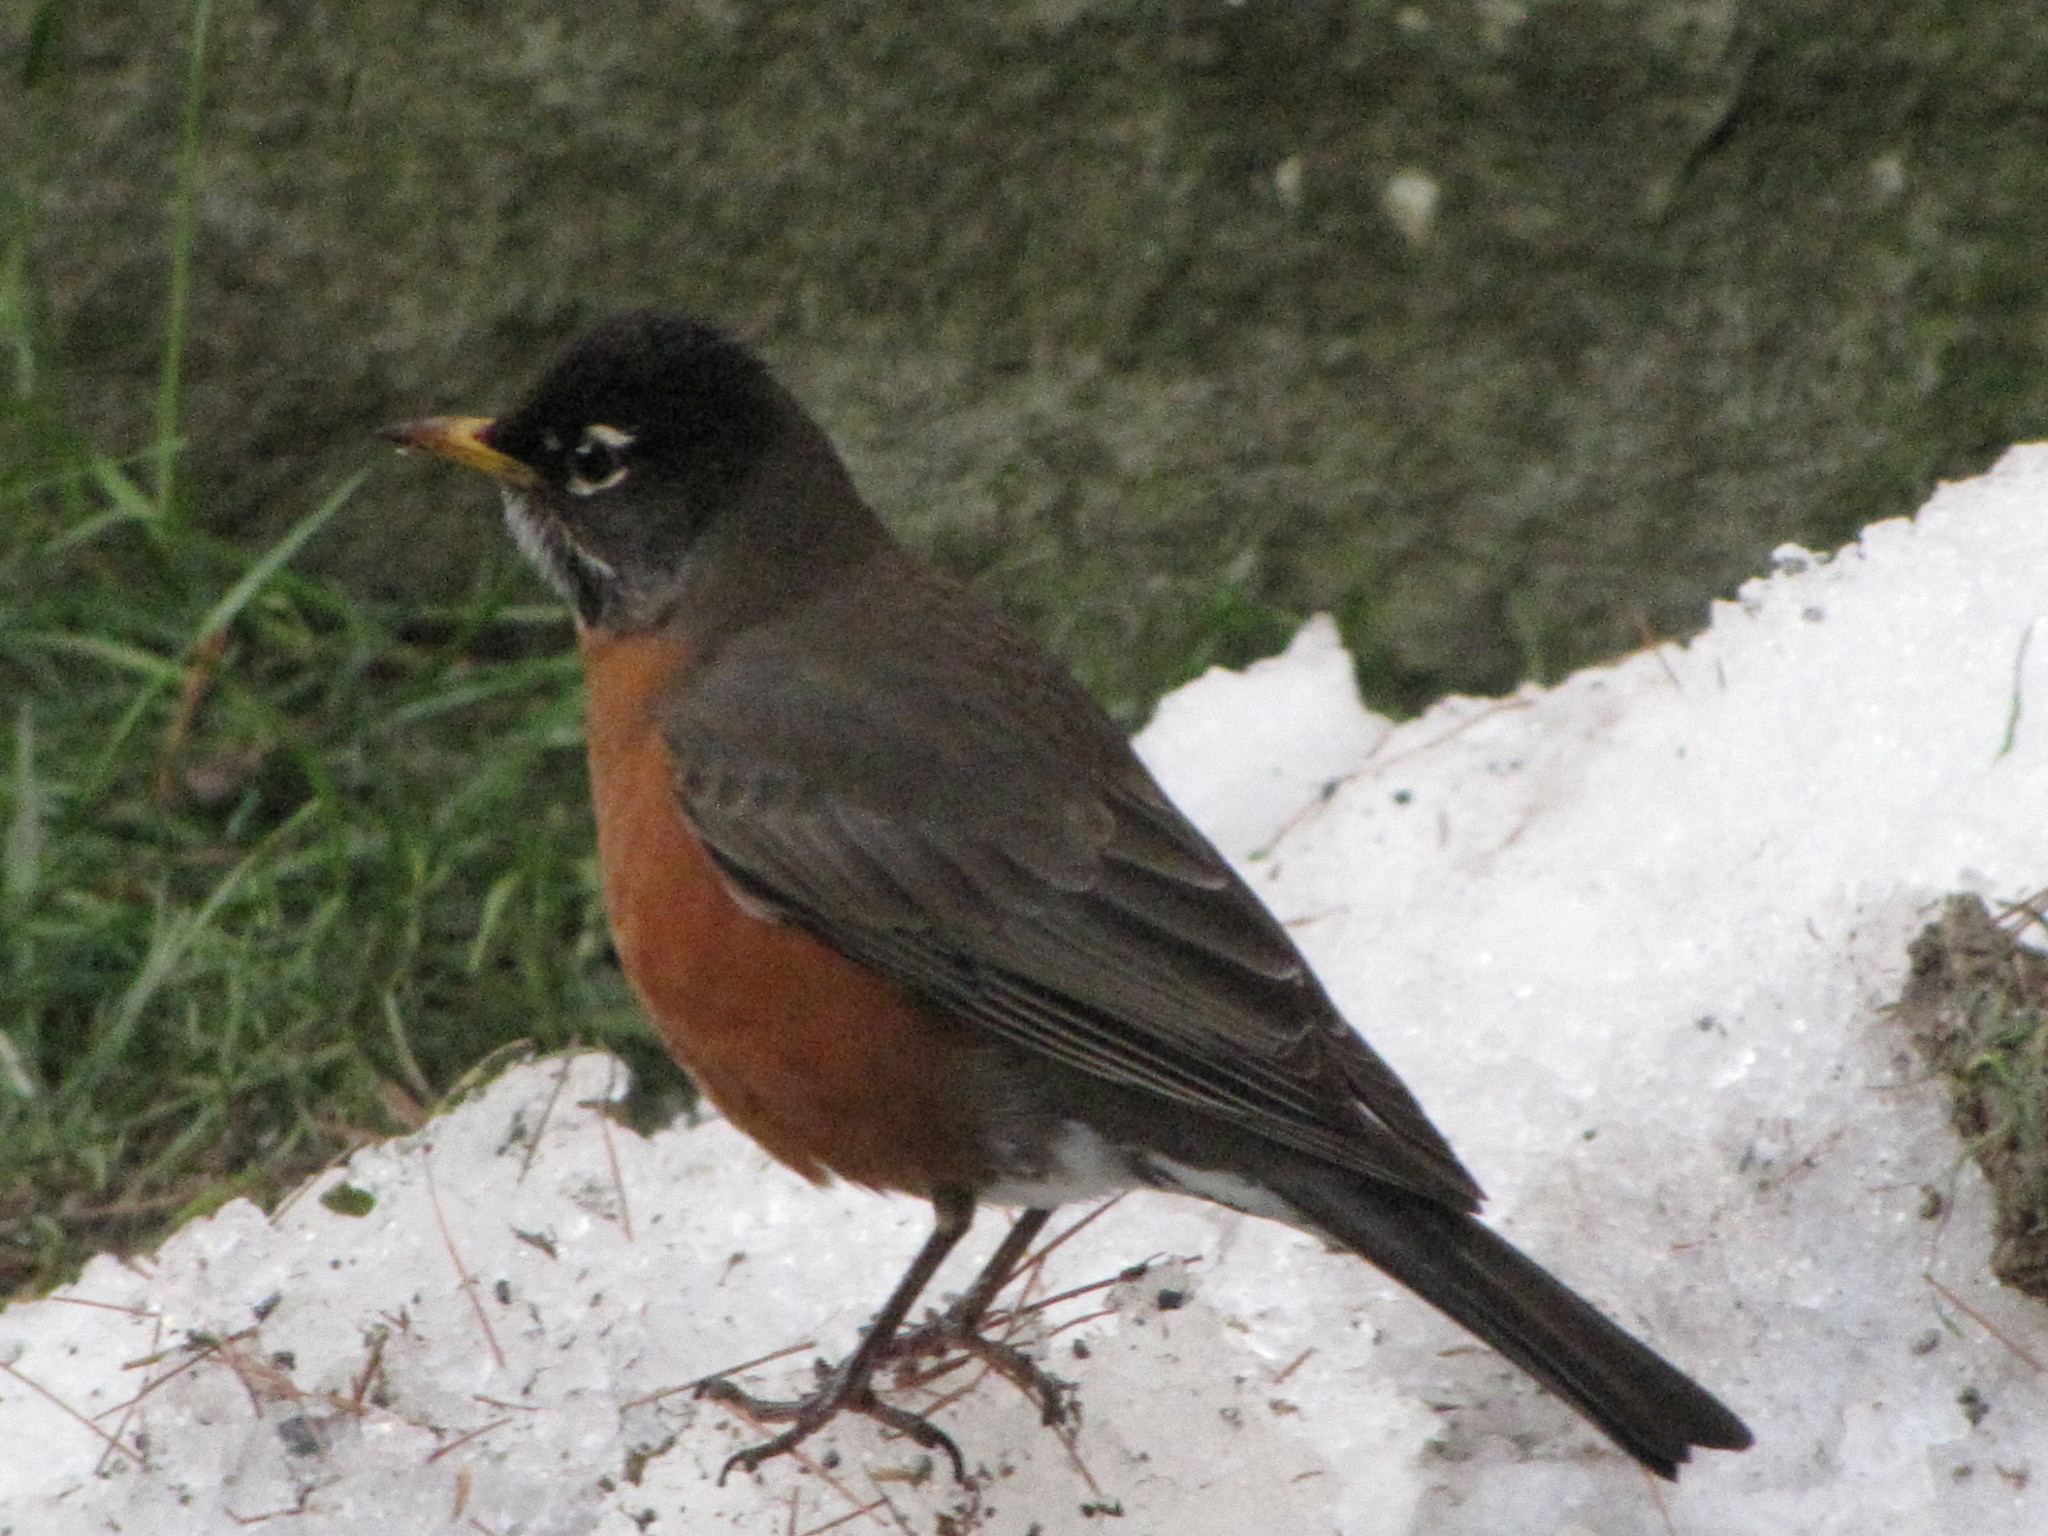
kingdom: Animalia
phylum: Chordata
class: Aves
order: Passeriformes
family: Turdidae
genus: Turdus
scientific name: Turdus migratorius
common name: American robin
